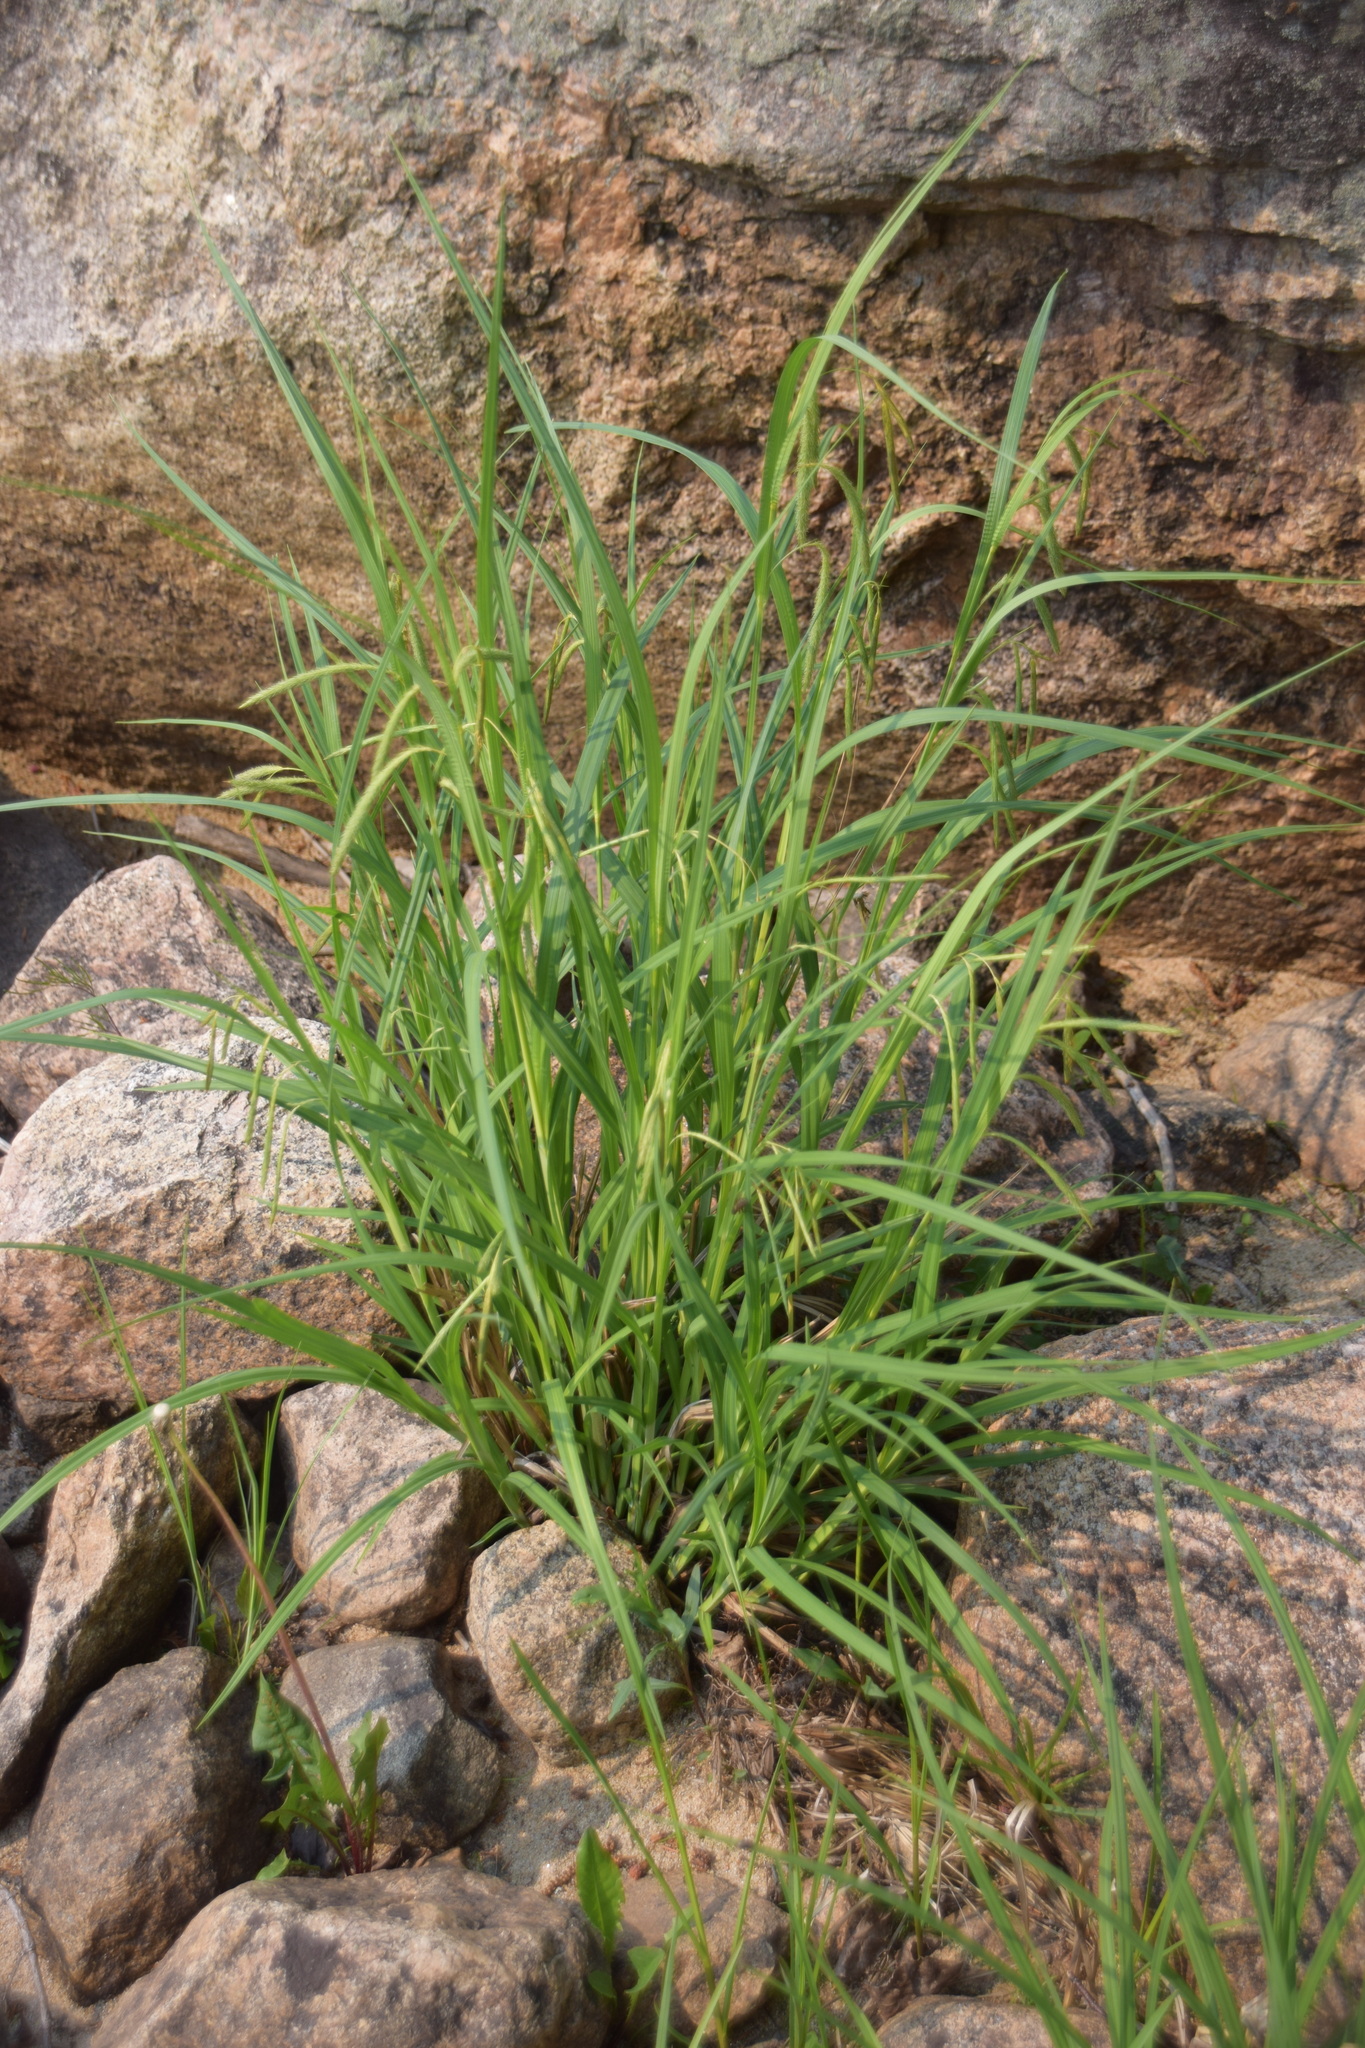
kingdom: Plantae
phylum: Tracheophyta
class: Liliopsida
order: Poales
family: Cyperaceae
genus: Carex
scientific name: Carex
